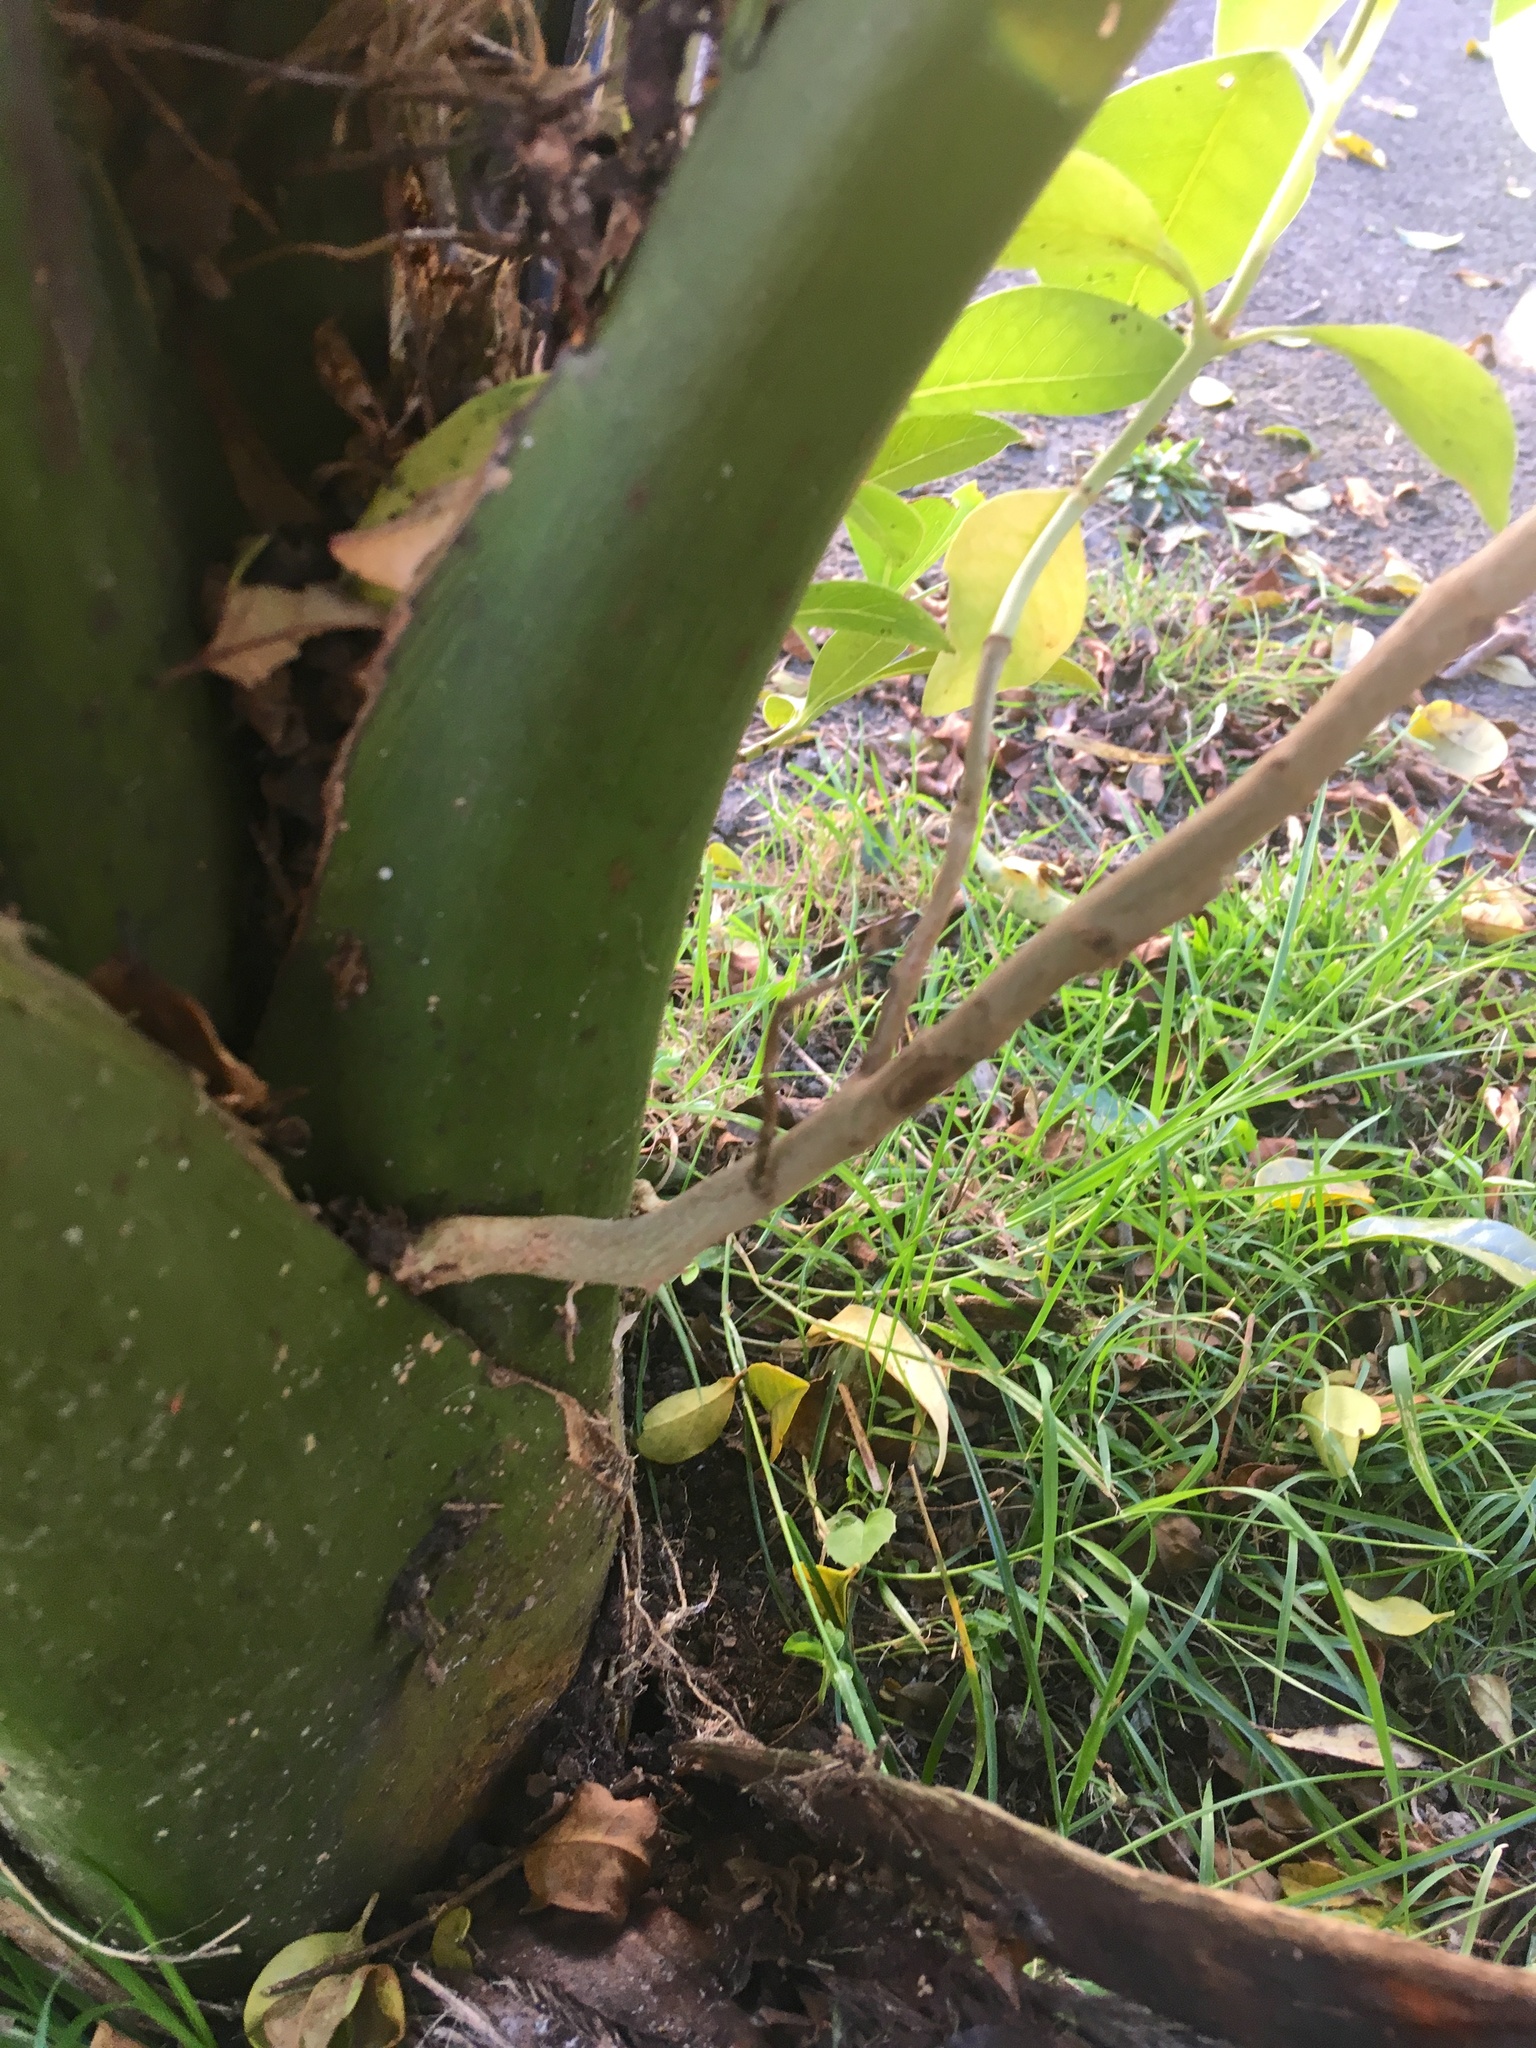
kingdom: Plantae
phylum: Tracheophyta
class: Magnoliopsida
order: Gentianales
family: Rubiaceae
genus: Coprosma
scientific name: Coprosma macrocarpa
